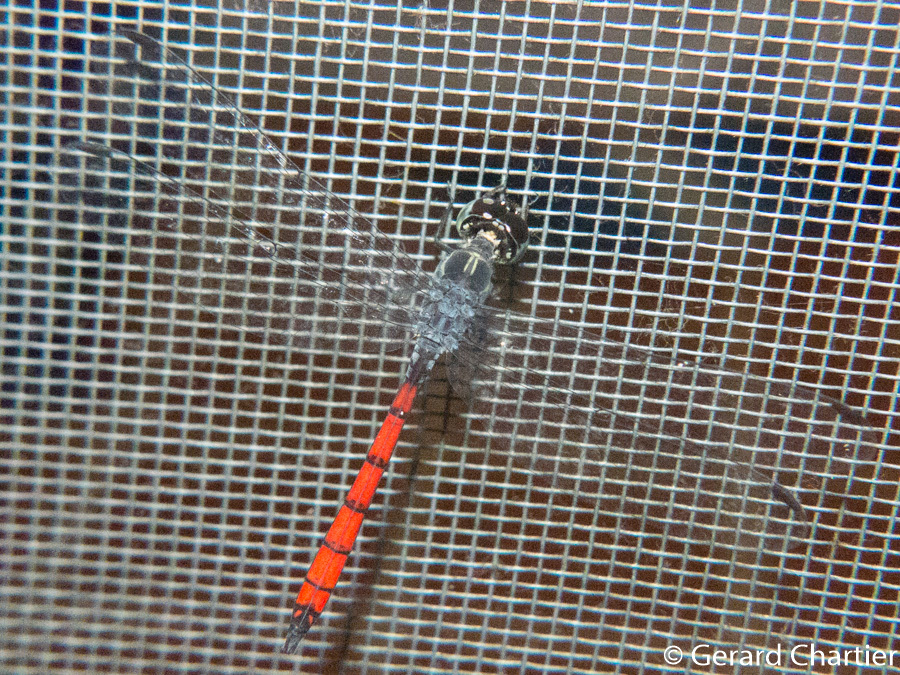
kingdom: Animalia
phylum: Arthropoda
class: Insecta
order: Odonata
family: Libellulidae
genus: Nesoxenia
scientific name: Nesoxenia lineata
